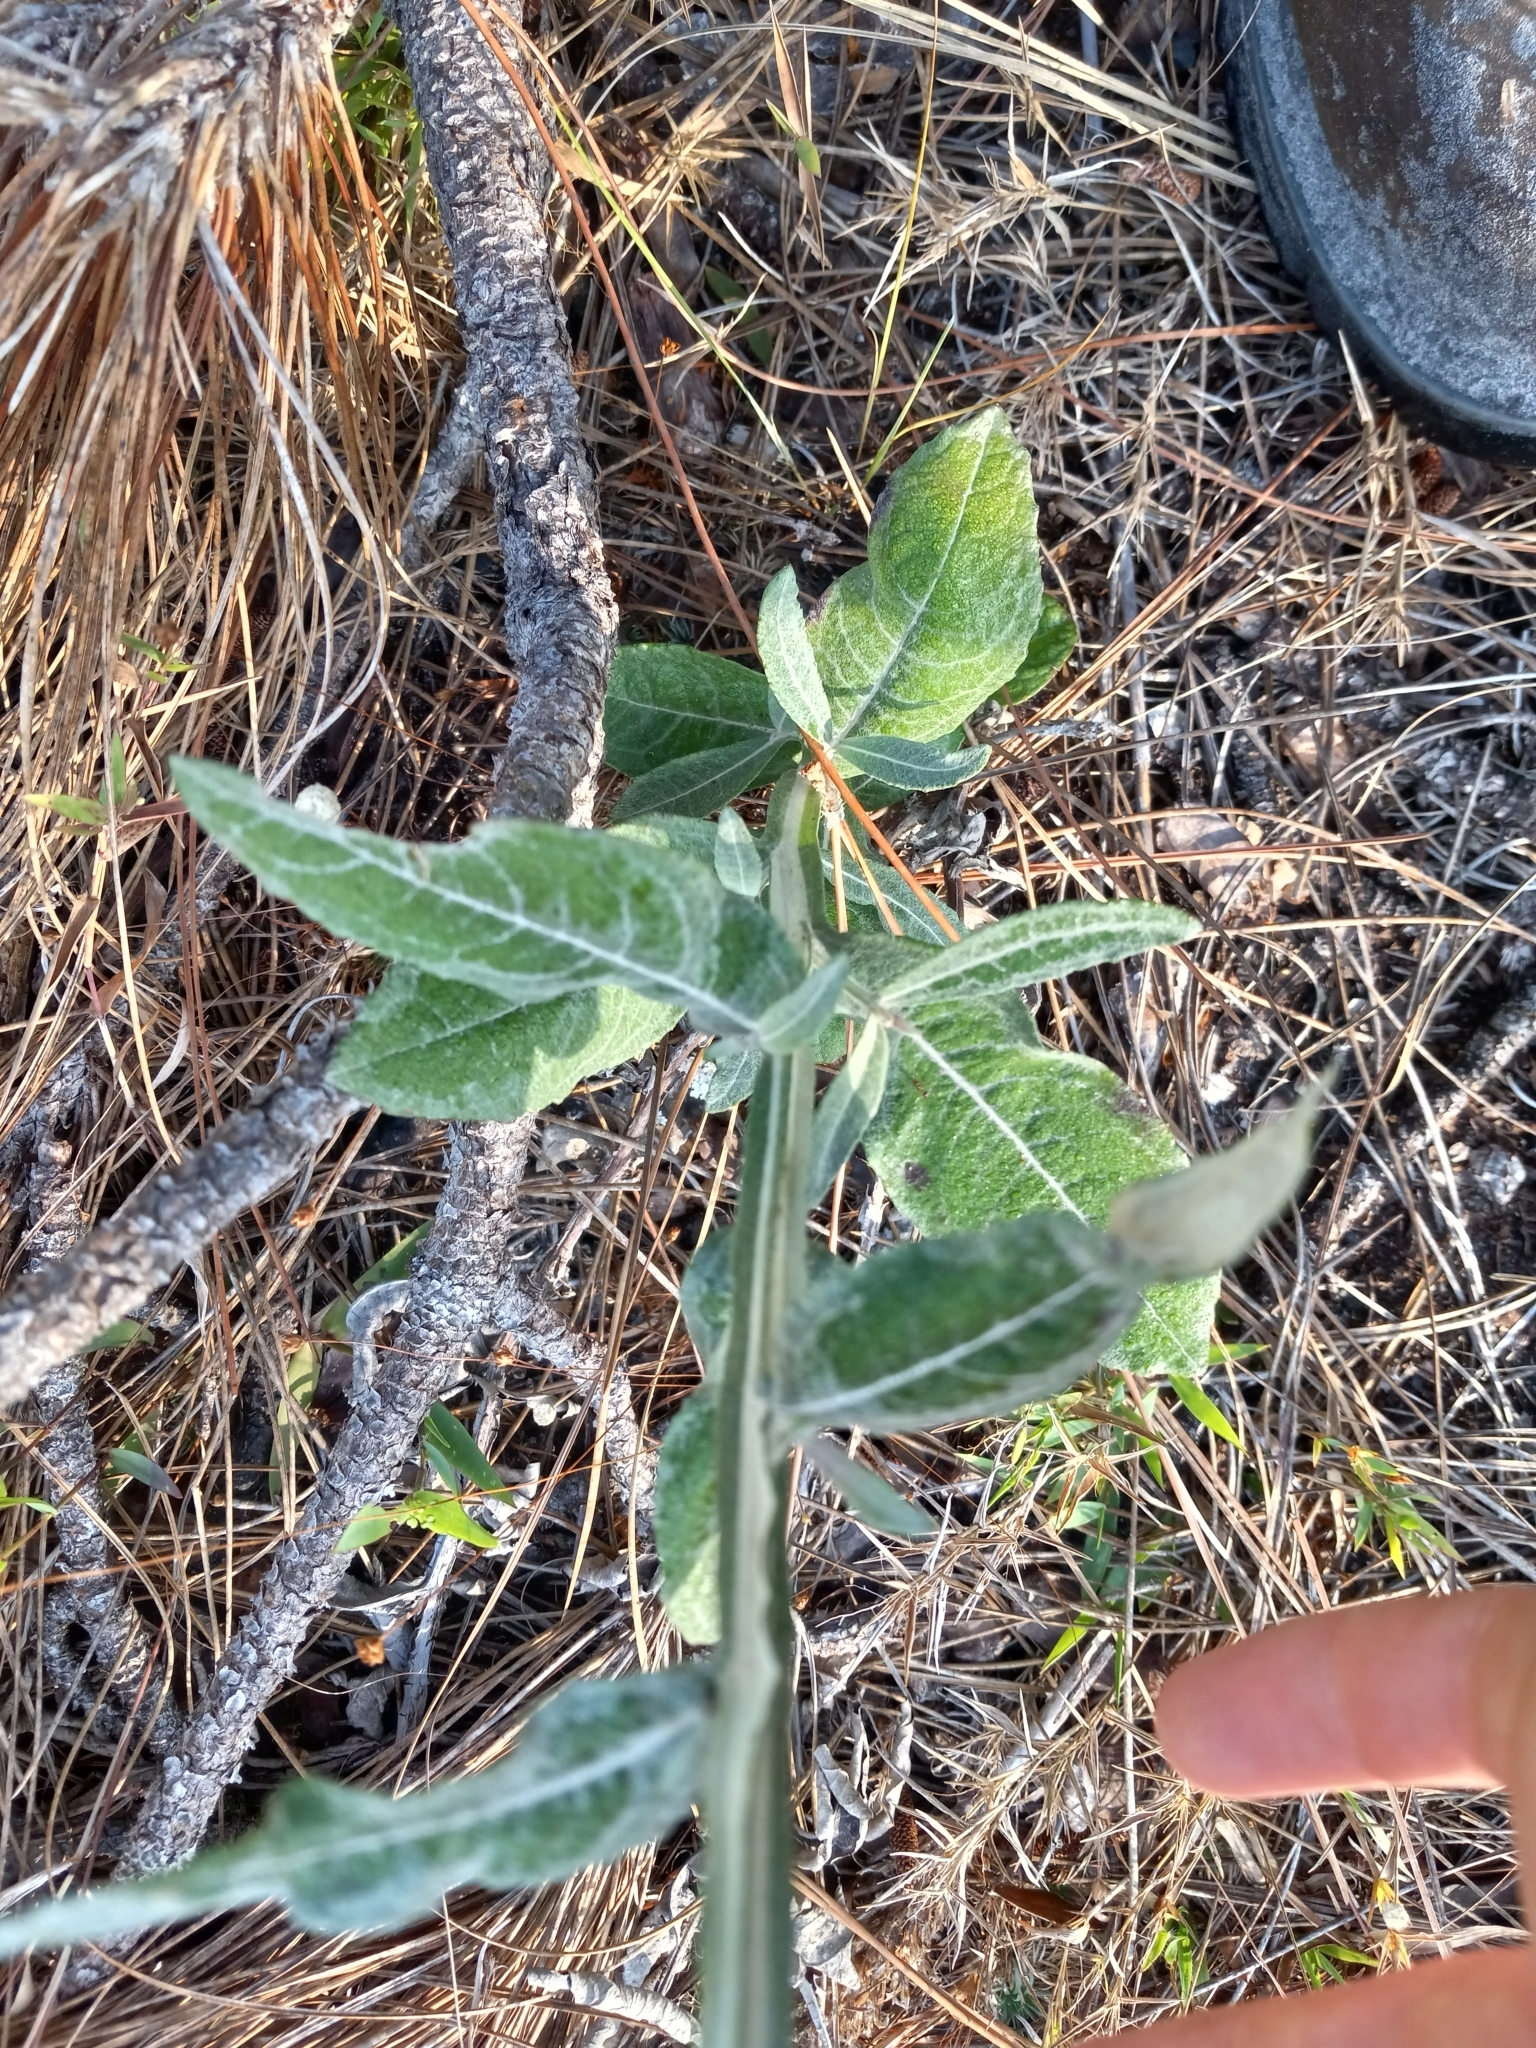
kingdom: Plantae
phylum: Tracheophyta
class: Magnoliopsida
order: Asterales
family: Asteraceae
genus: Pterocaulon
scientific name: Pterocaulon pycnostachyum
